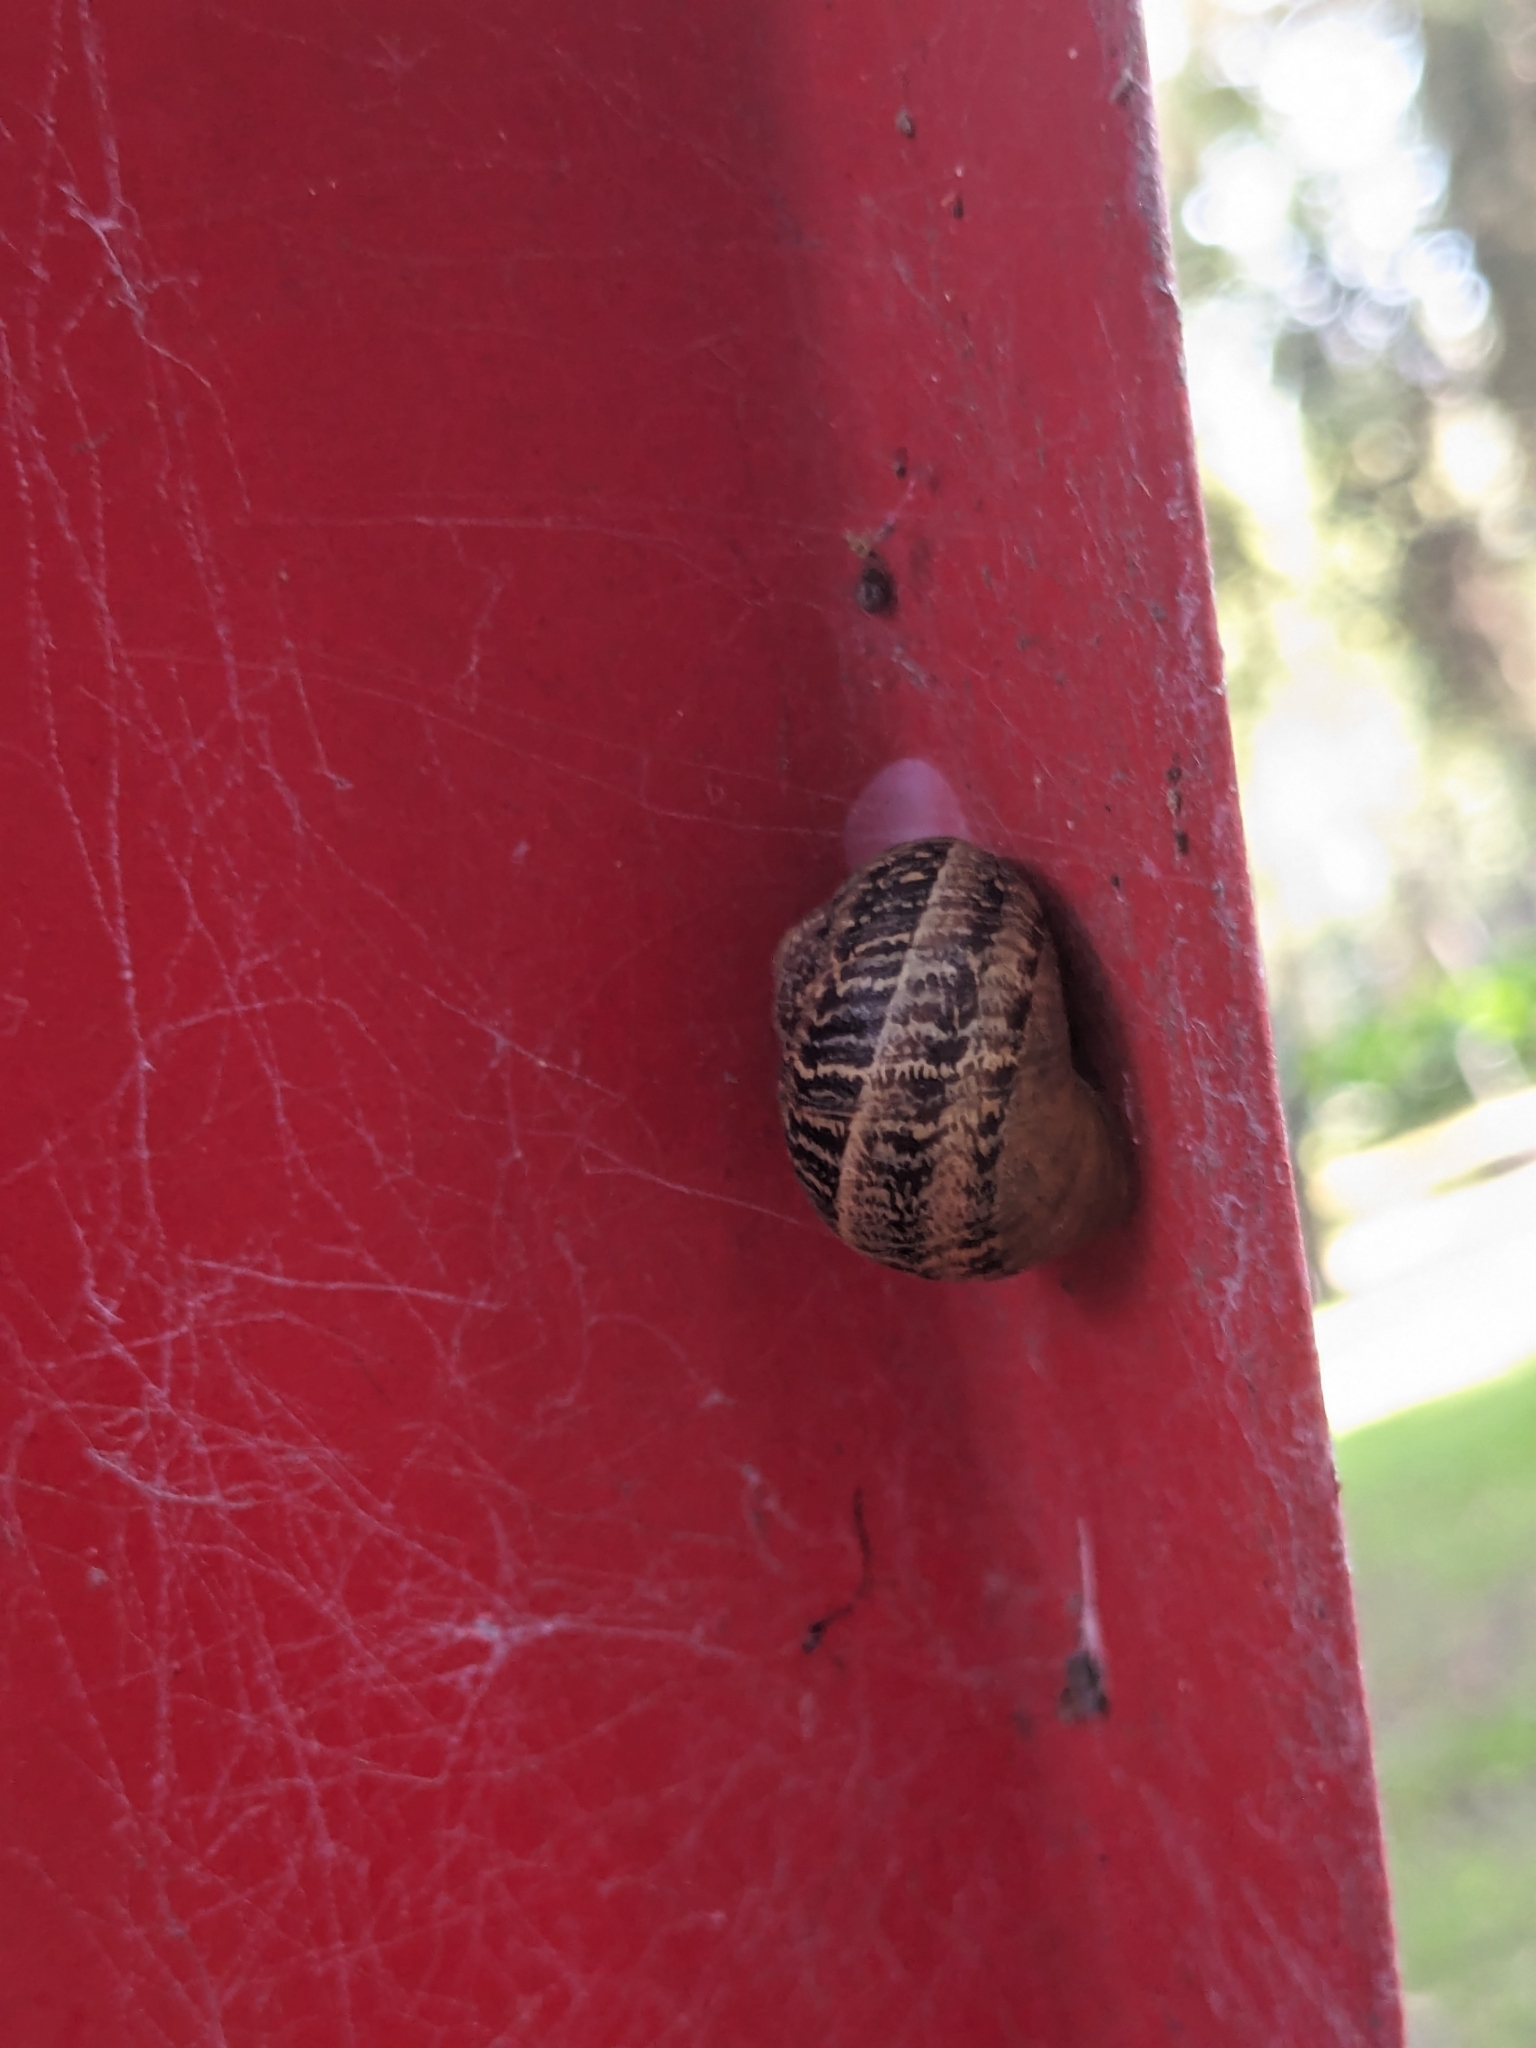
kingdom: Animalia
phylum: Mollusca
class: Gastropoda
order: Stylommatophora
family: Helicidae
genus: Cornu
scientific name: Cornu aspersum
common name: Brown garden snail
